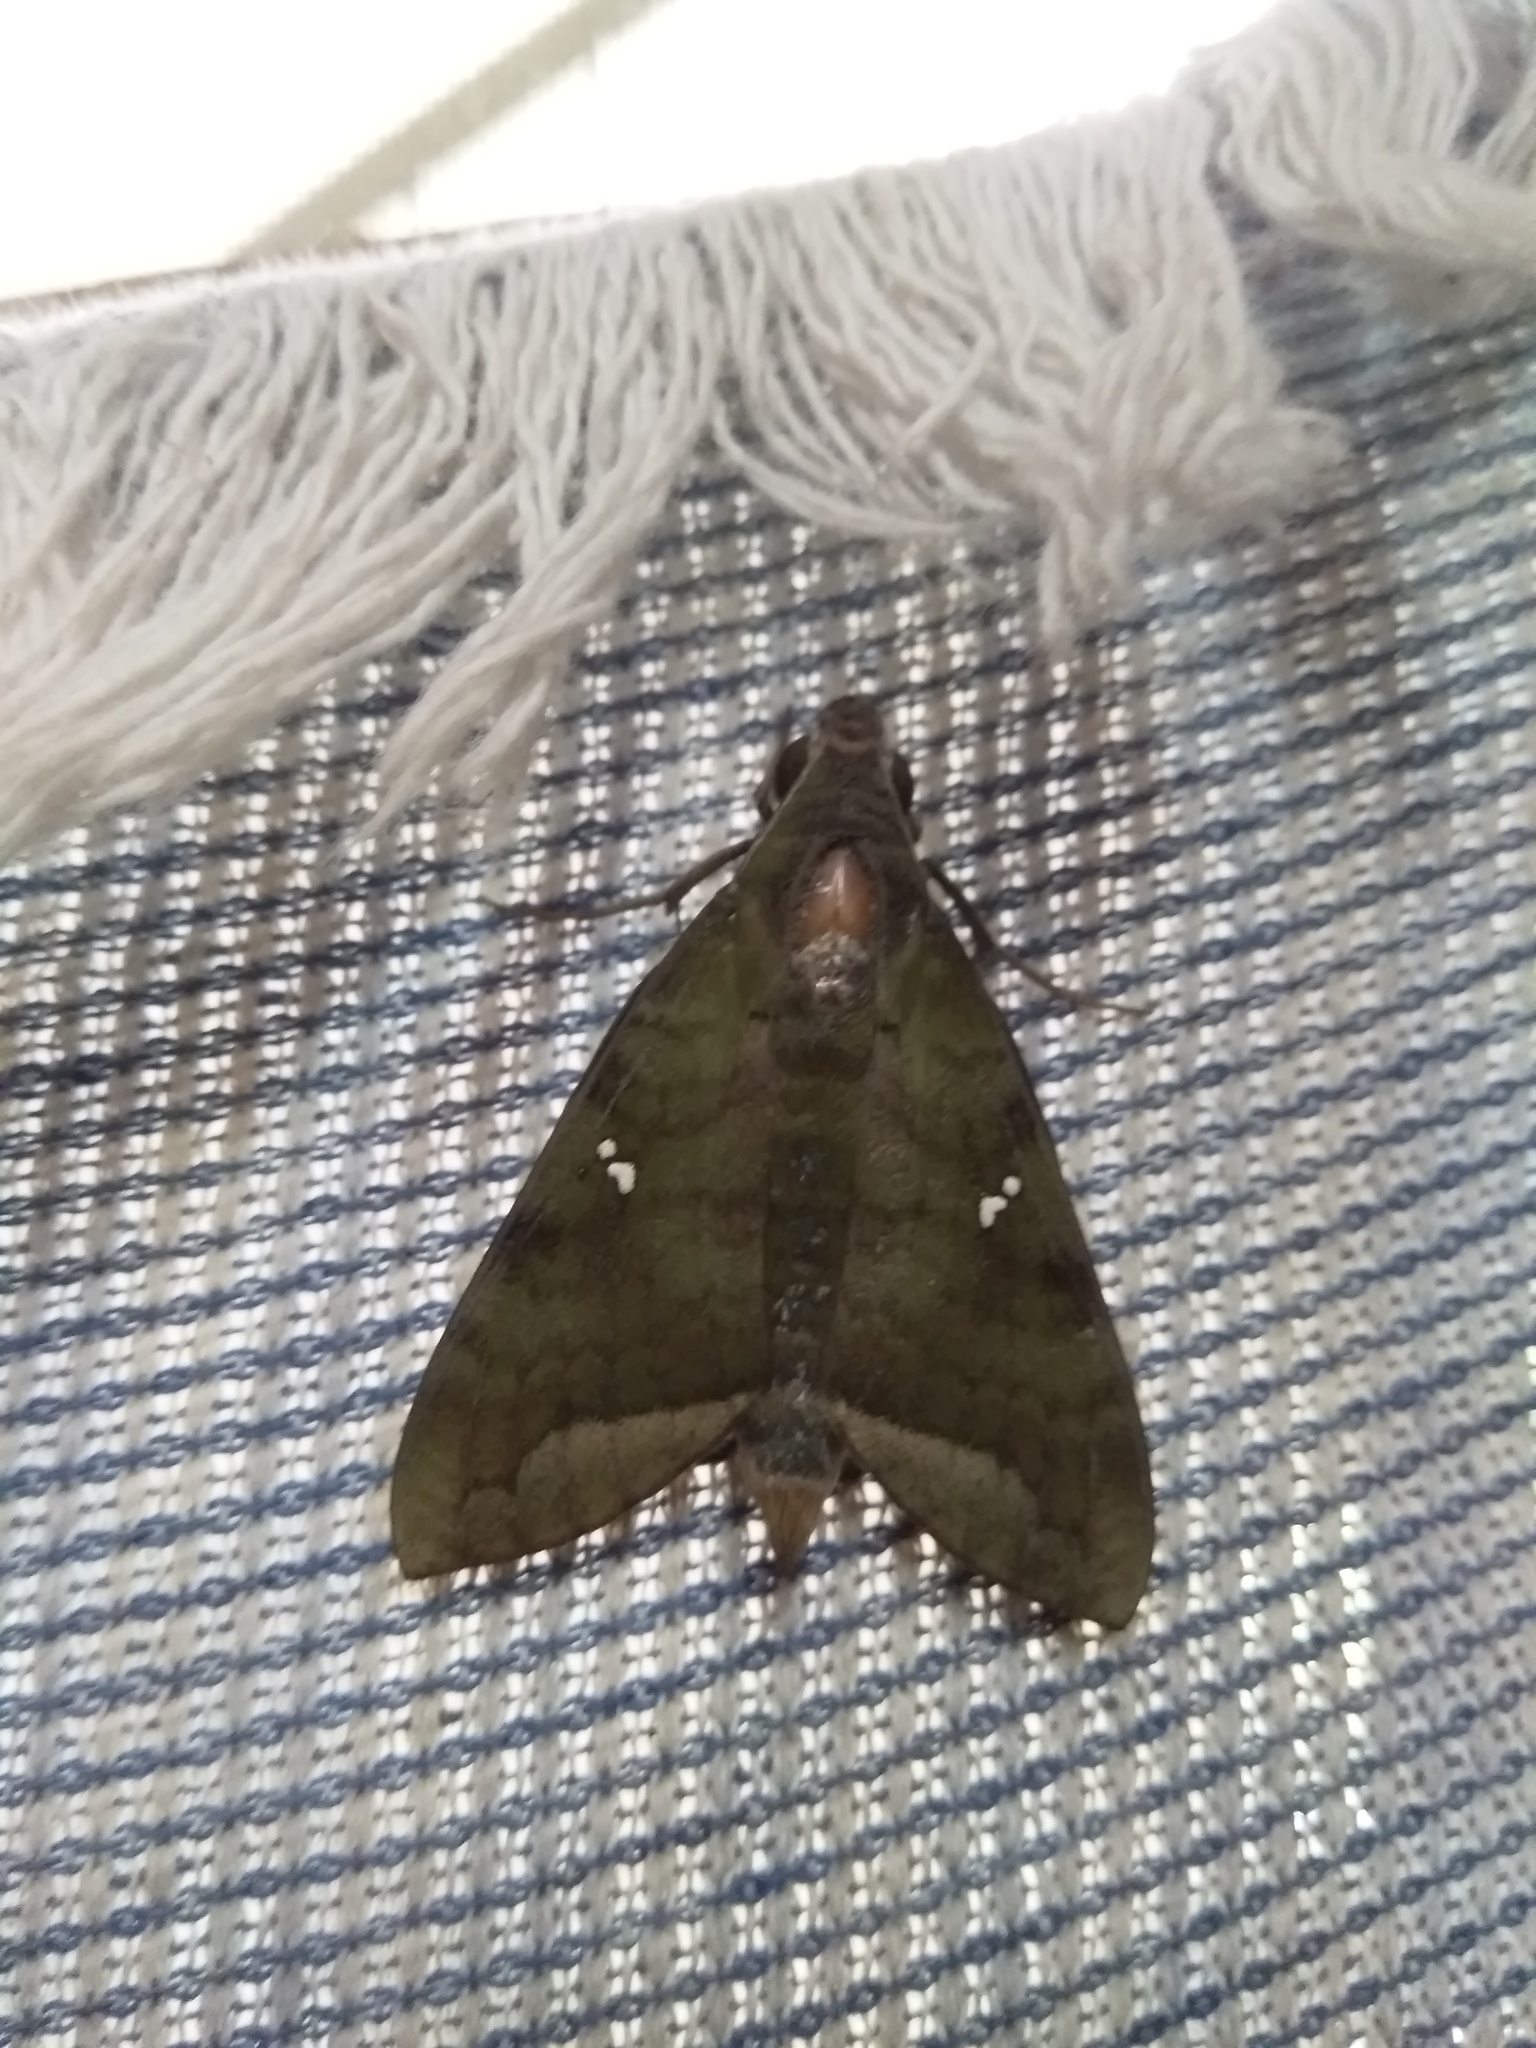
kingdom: Animalia
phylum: Arthropoda
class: Insecta
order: Lepidoptera
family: Sphingidae
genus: Nephele
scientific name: Nephele hespera
